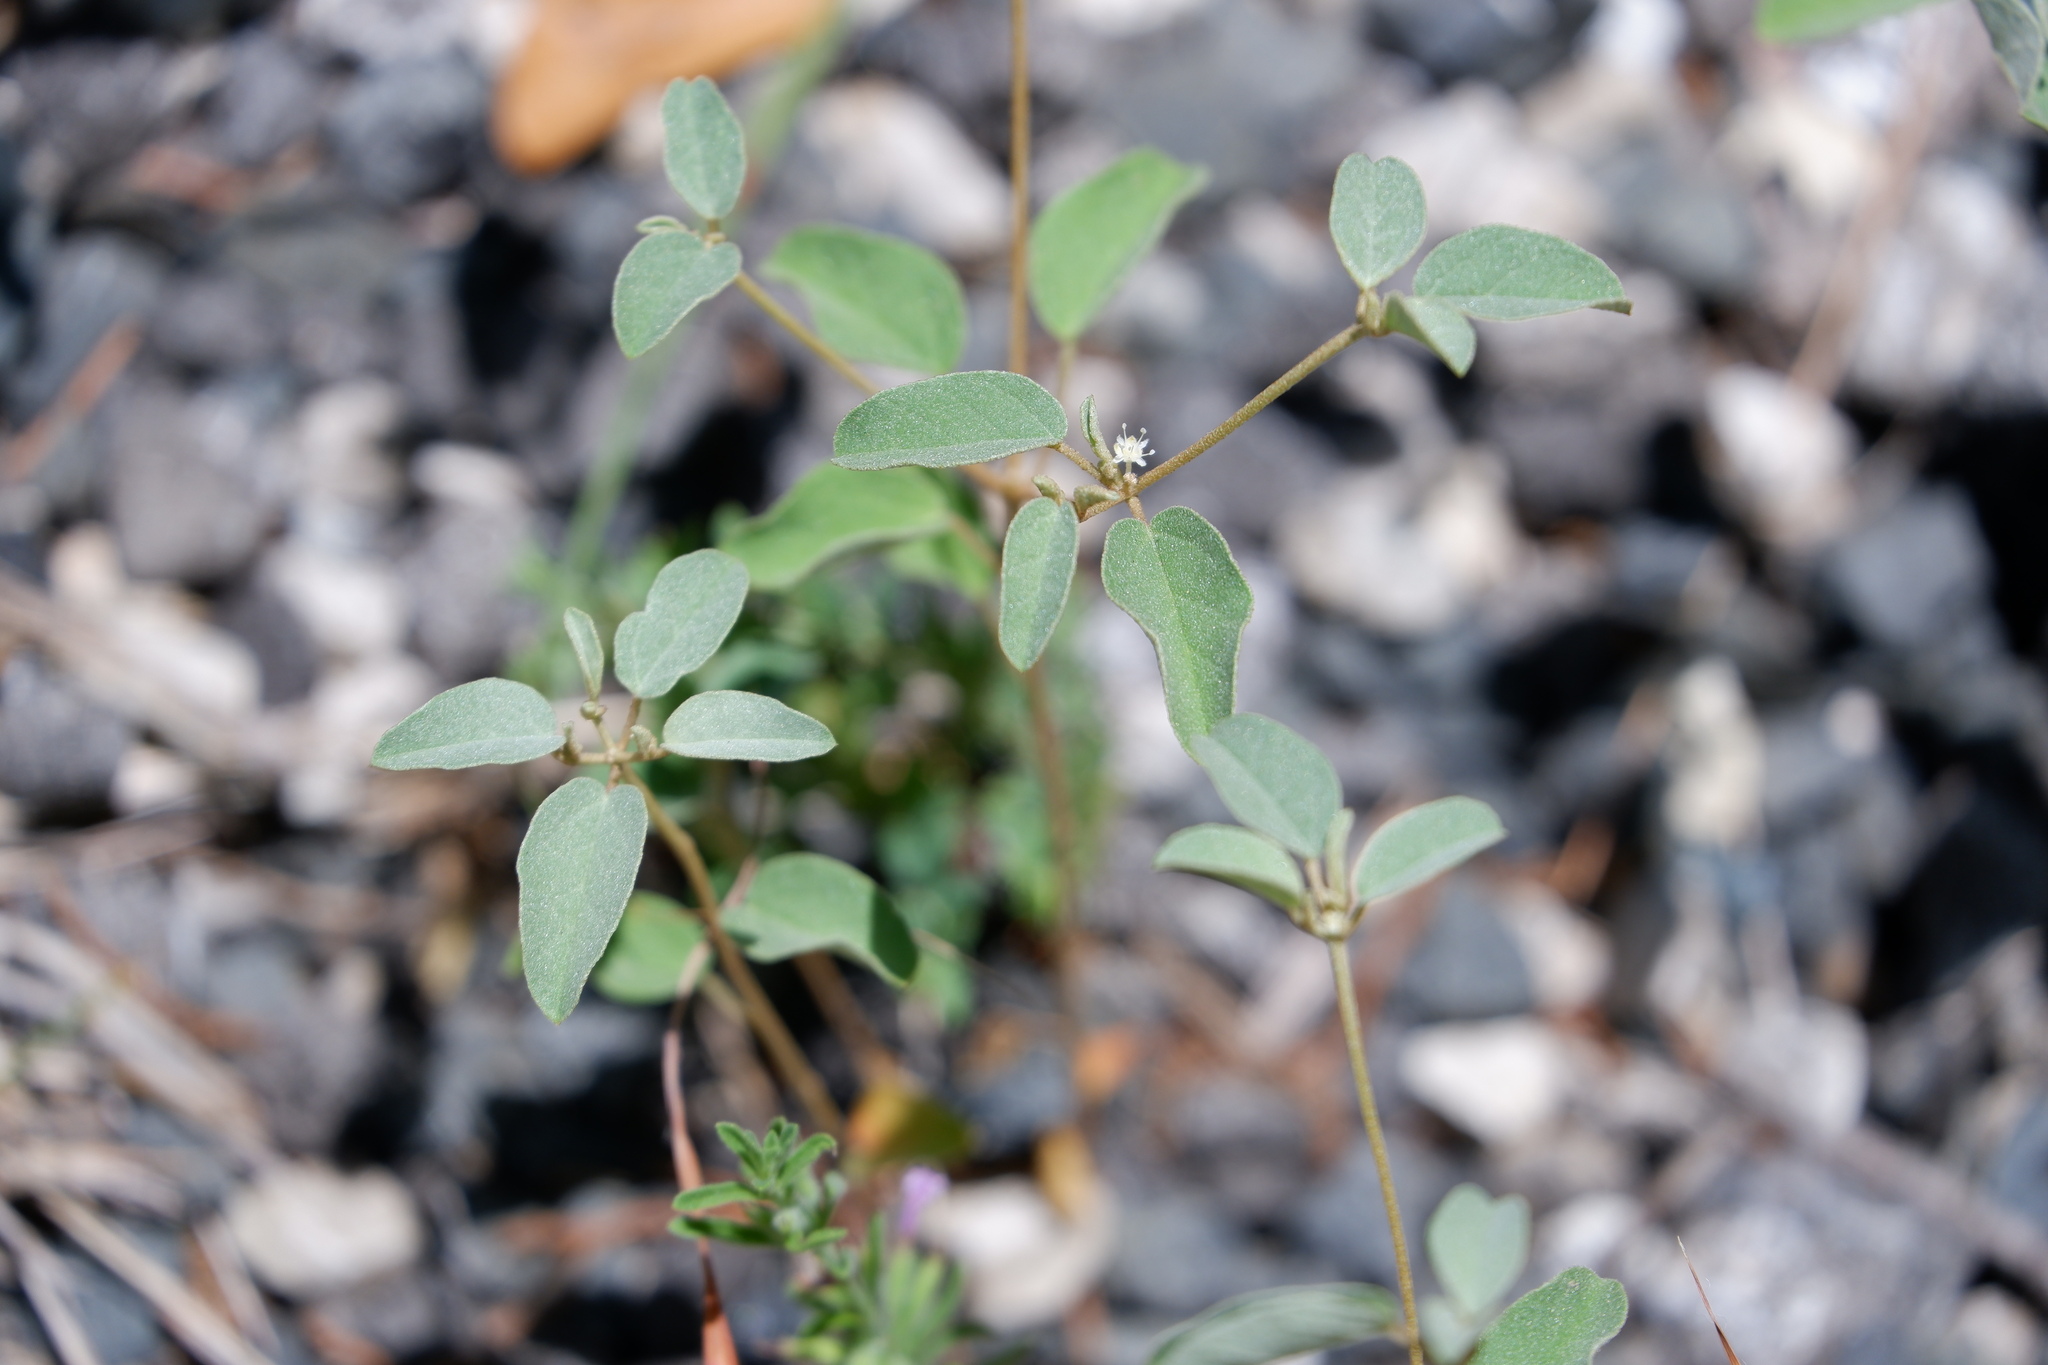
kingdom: Plantae
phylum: Tracheophyta
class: Magnoliopsida
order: Malpighiales
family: Euphorbiaceae
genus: Croton
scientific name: Croton monanthogynus
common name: One-seed croton
